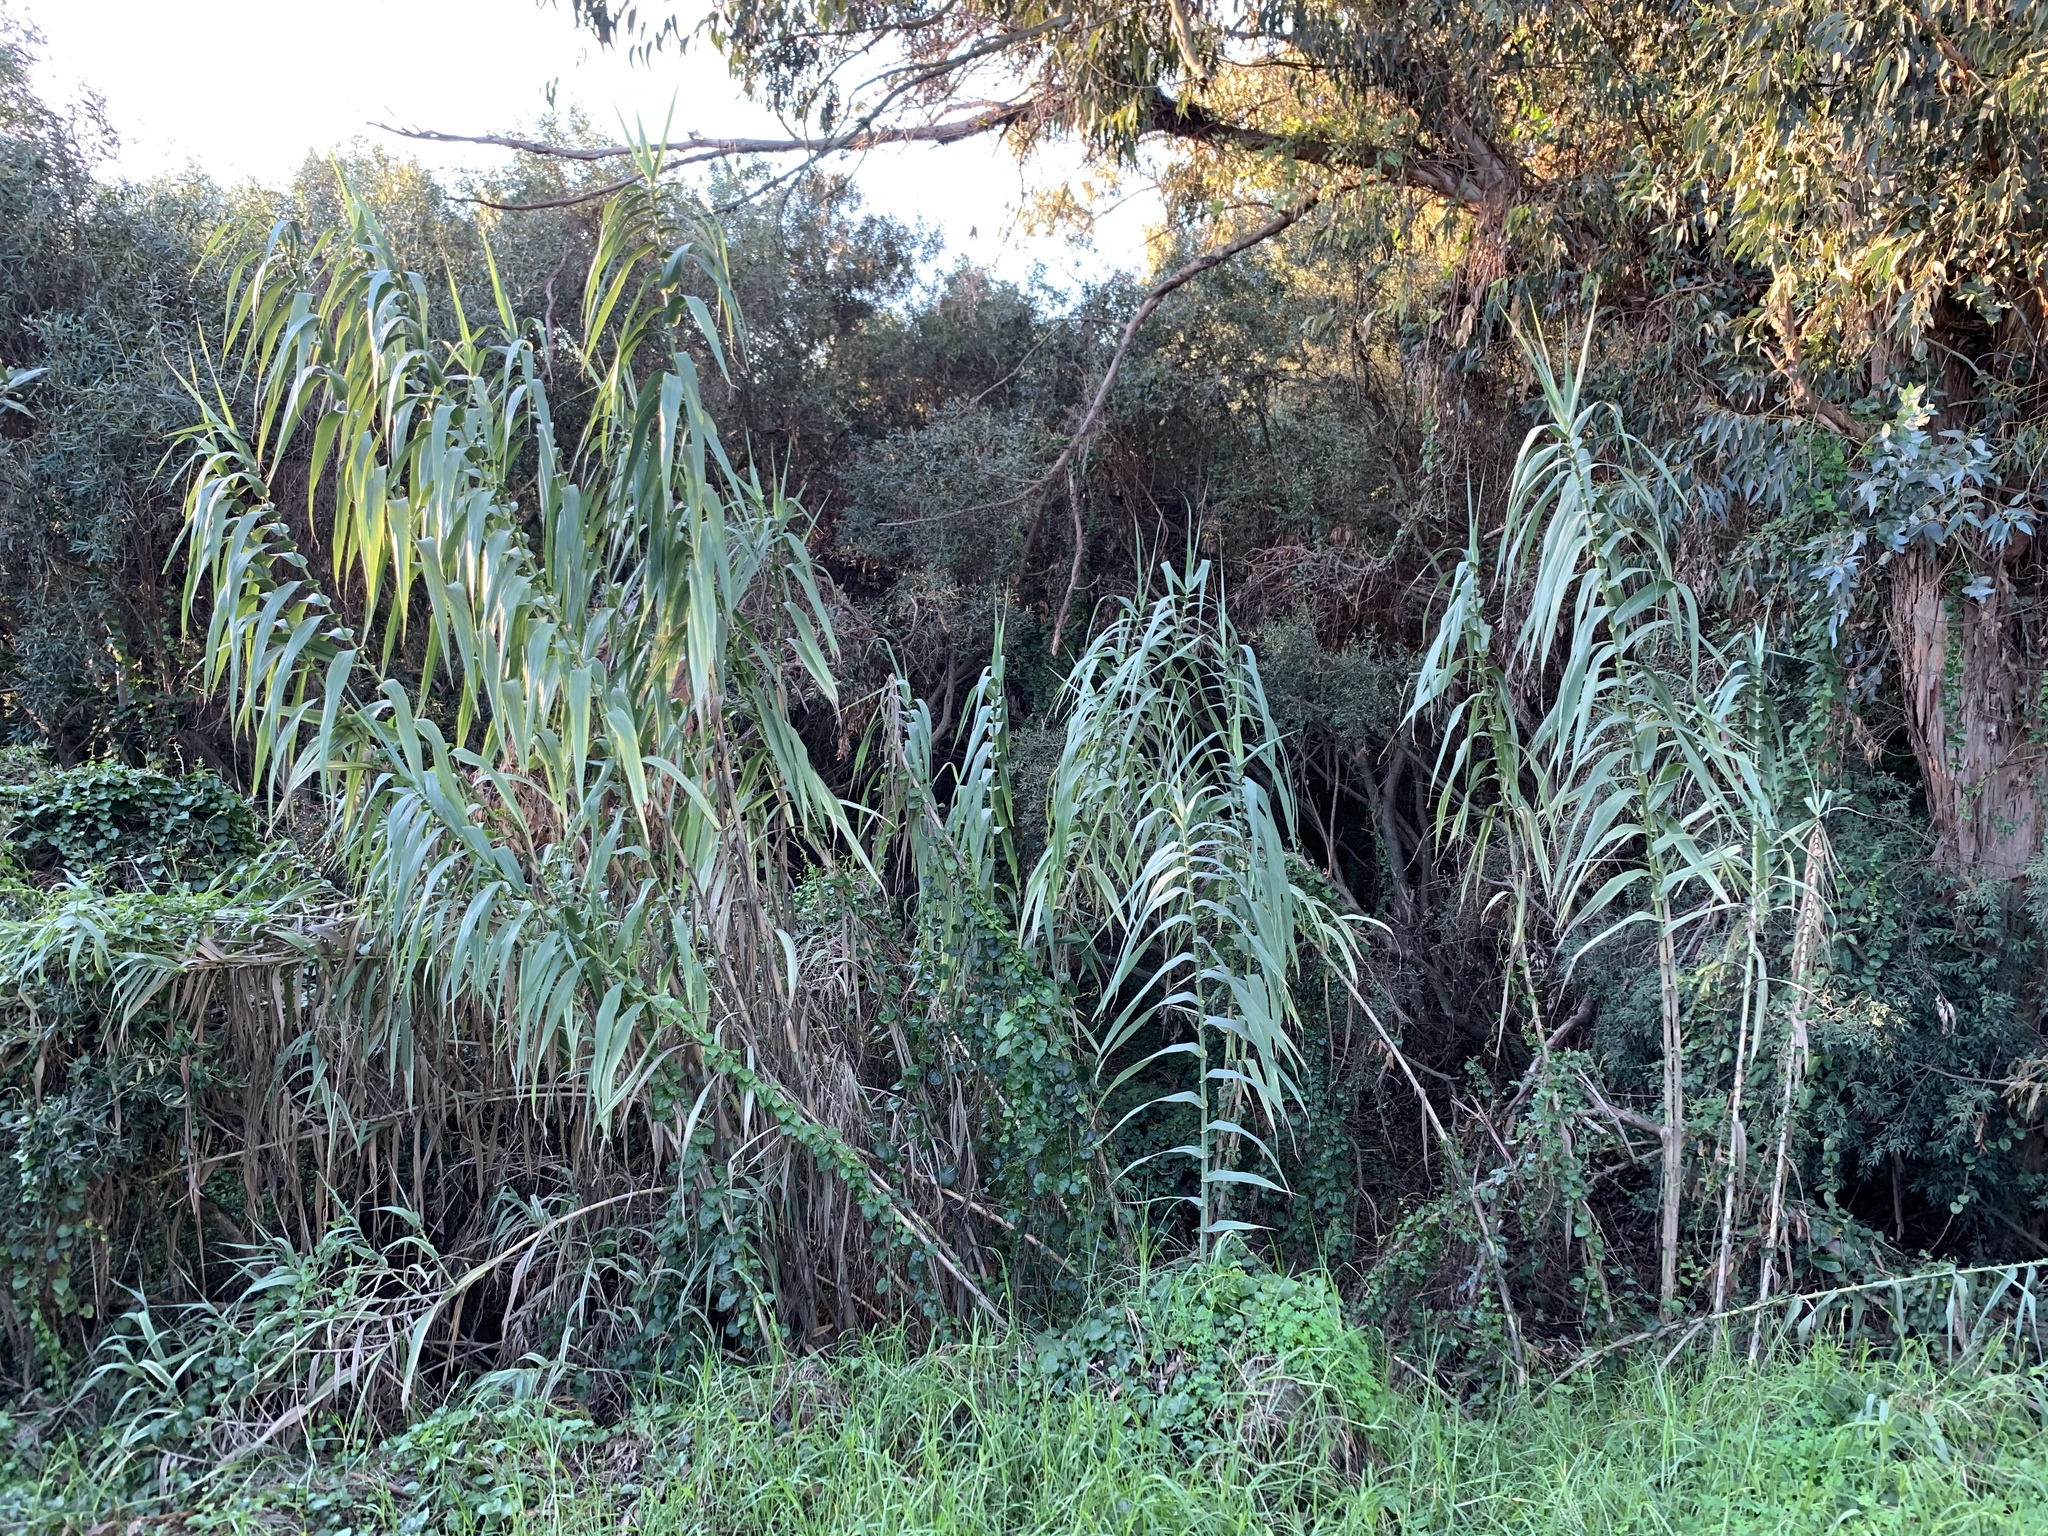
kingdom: Plantae
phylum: Tracheophyta
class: Liliopsida
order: Poales
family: Poaceae
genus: Arundo
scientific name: Arundo donax
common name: Giant reed
